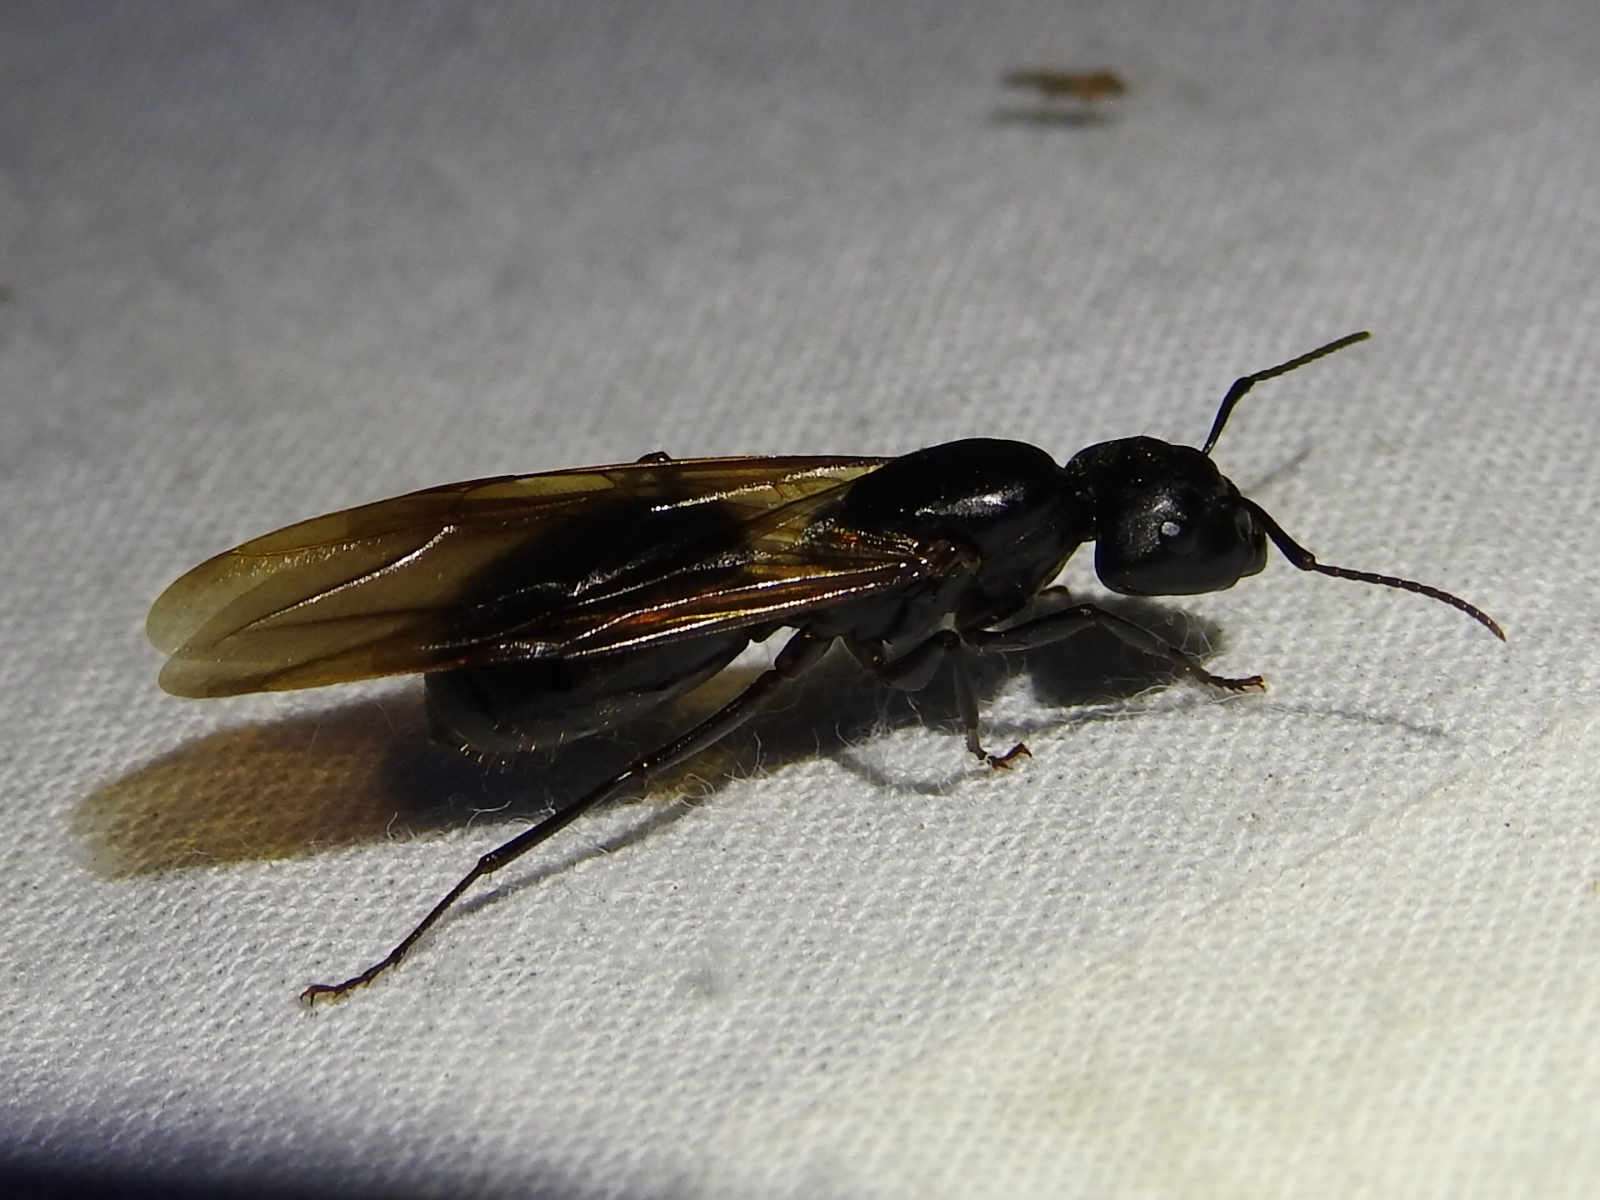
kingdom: Animalia
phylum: Arthropoda
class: Insecta
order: Hymenoptera
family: Formicidae
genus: Camponotus
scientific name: Camponotus pennsylvanicus
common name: Black carpenter ant
